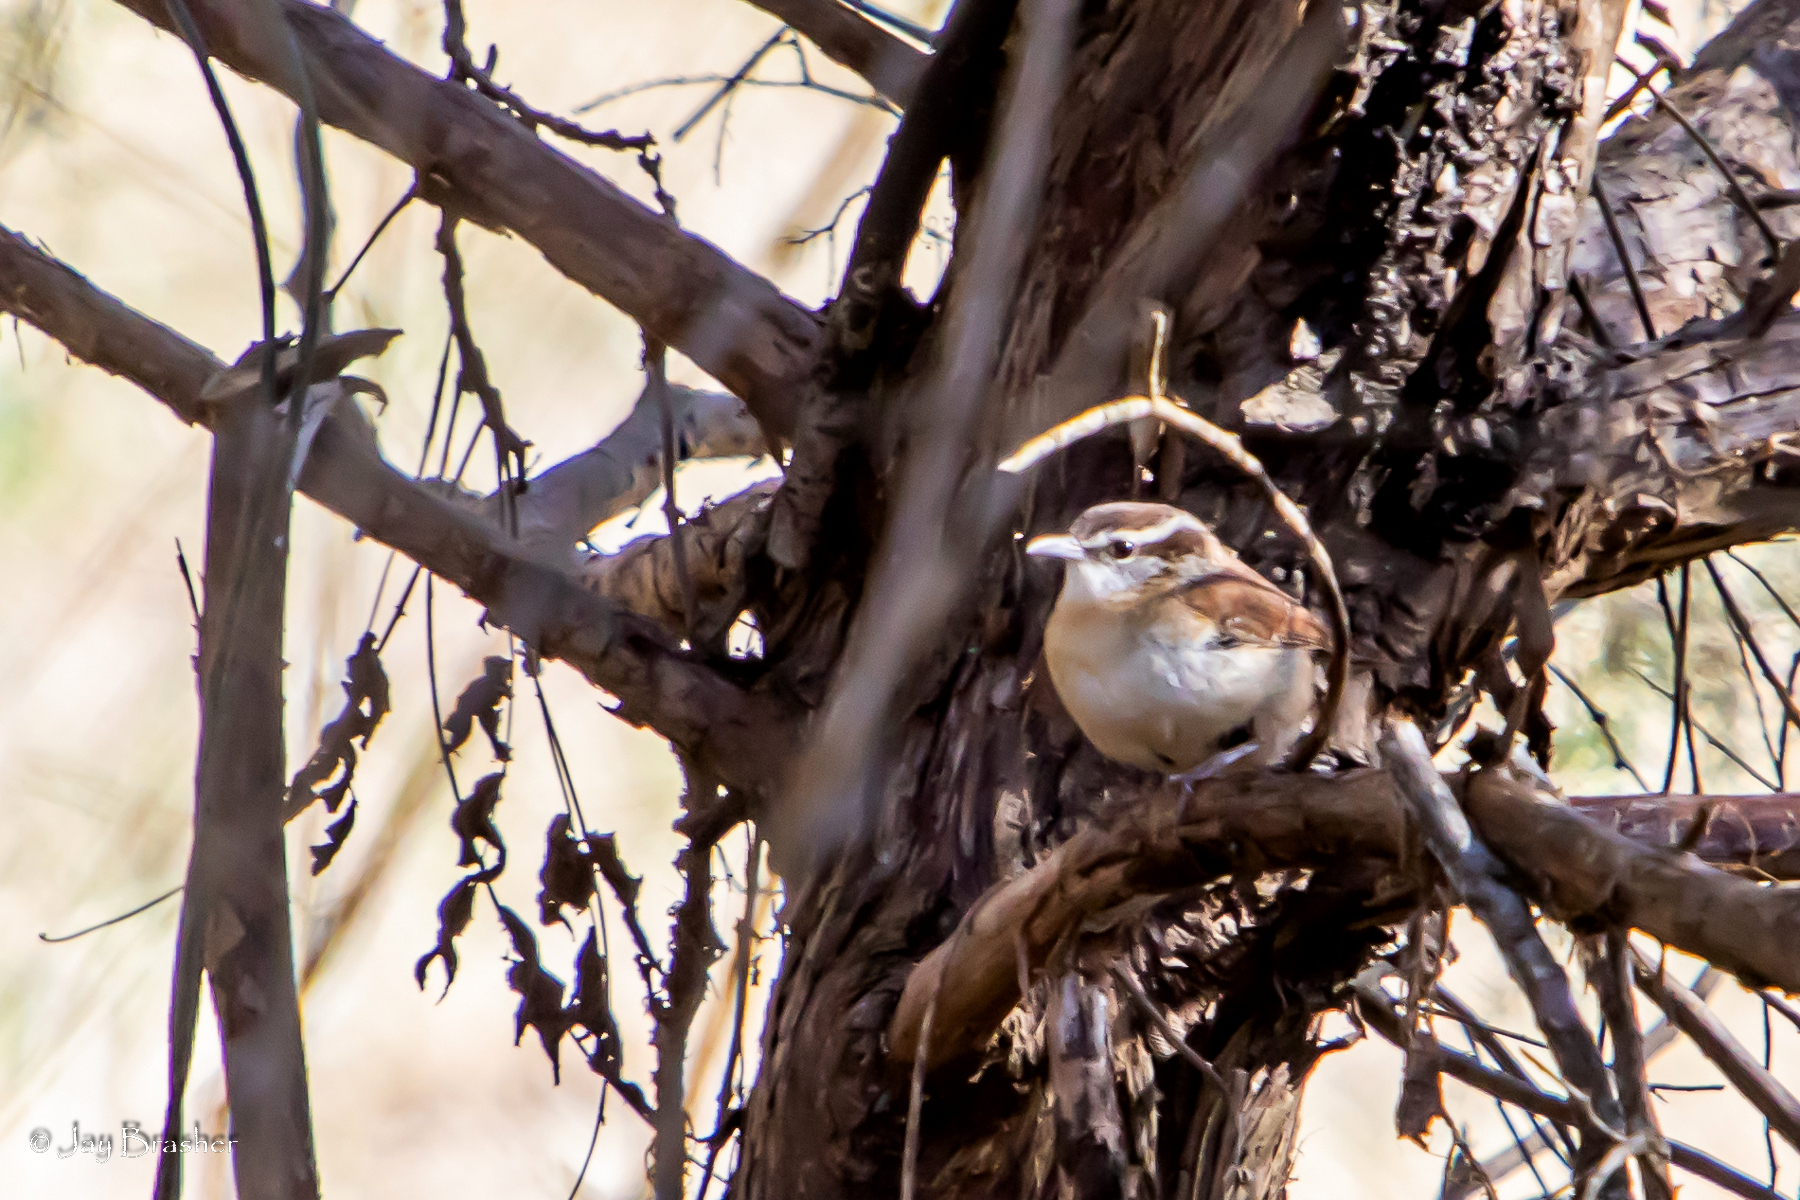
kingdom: Animalia
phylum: Chordata
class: Aves
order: Passeriformes
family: Troglodytidae
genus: Thryothorus
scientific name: Thryothorus ludovicianus
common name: Carolina wren
